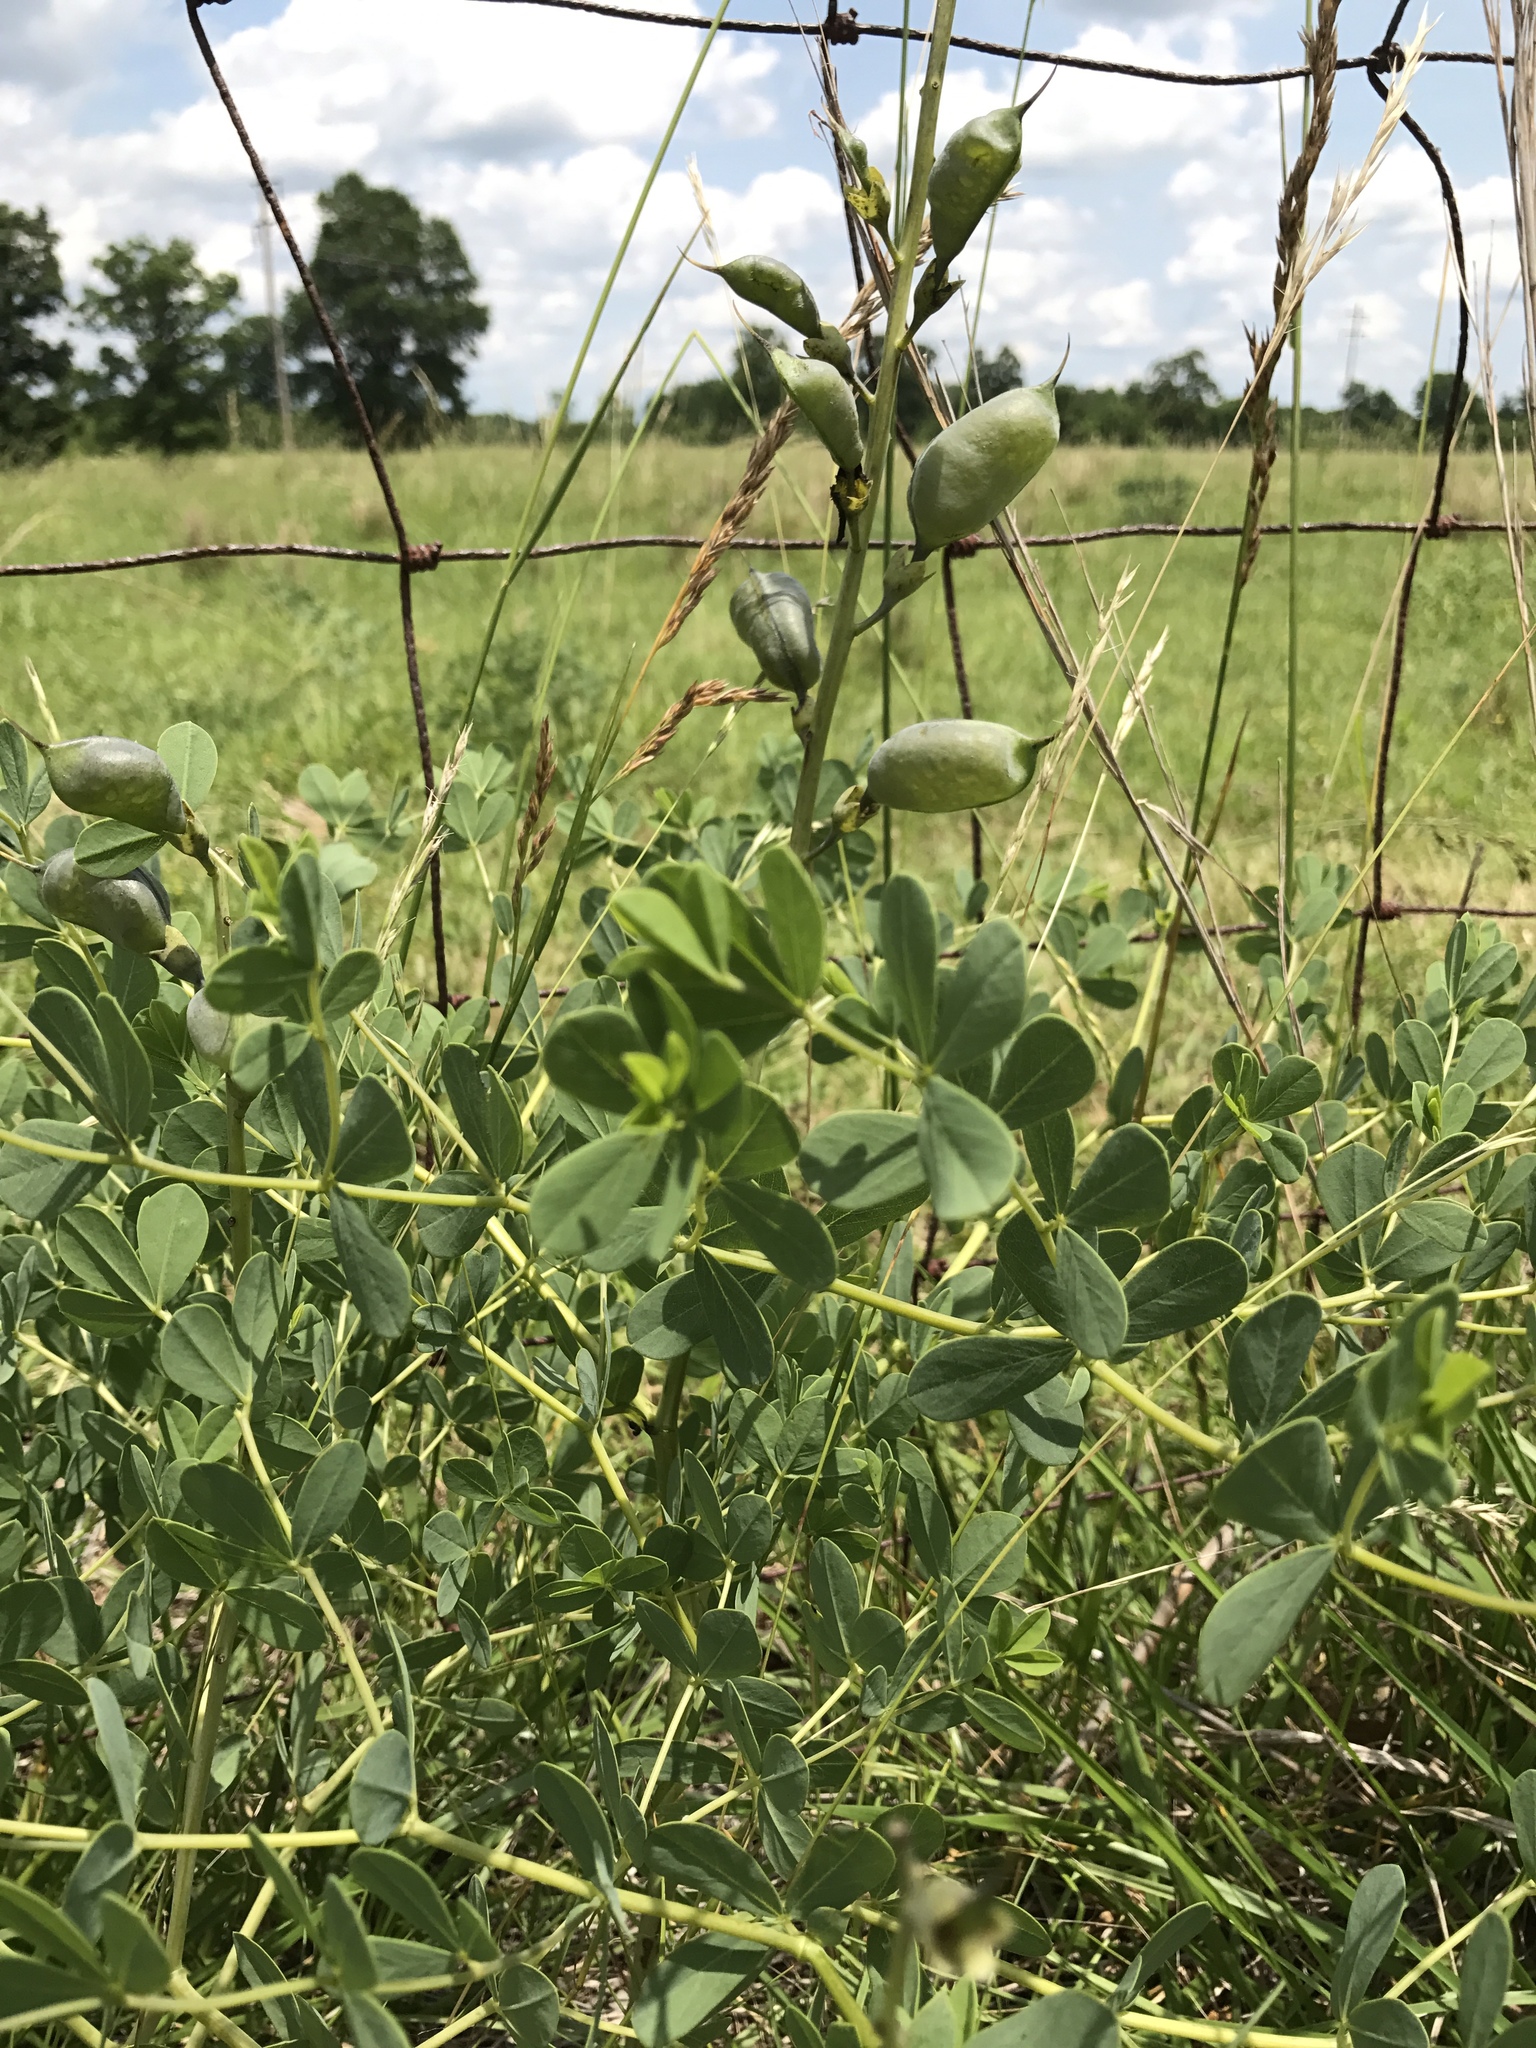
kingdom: Plantae
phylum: Tracheophyta
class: Magnoliopsida
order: Fabales
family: Fabaceae
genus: Baptisia
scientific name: Baptisia aberrans
